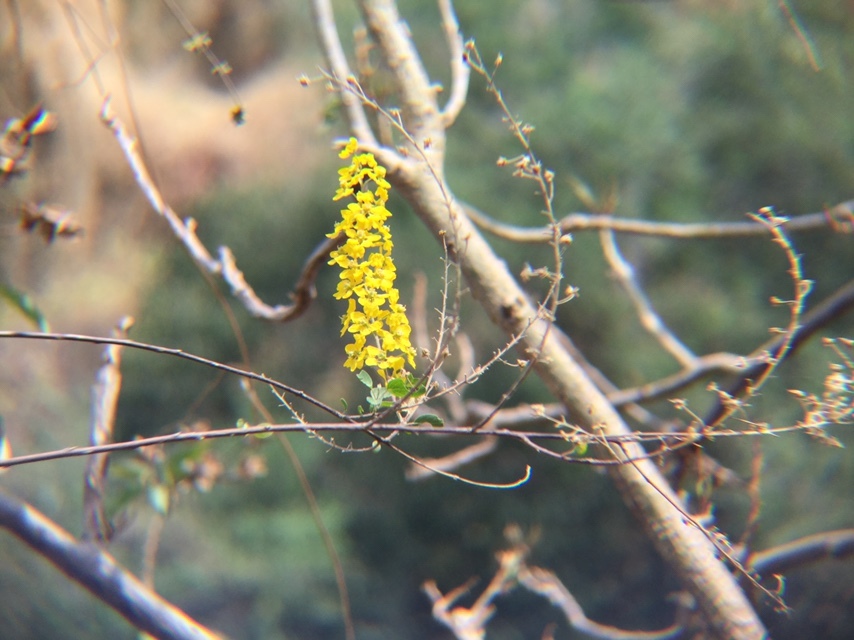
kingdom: Plantae
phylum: Tracheophyta
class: Magnoliopsida
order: Malpighiales
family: Malpighiaceae
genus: Echinopterys
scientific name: Echinopterys eglandulosa
